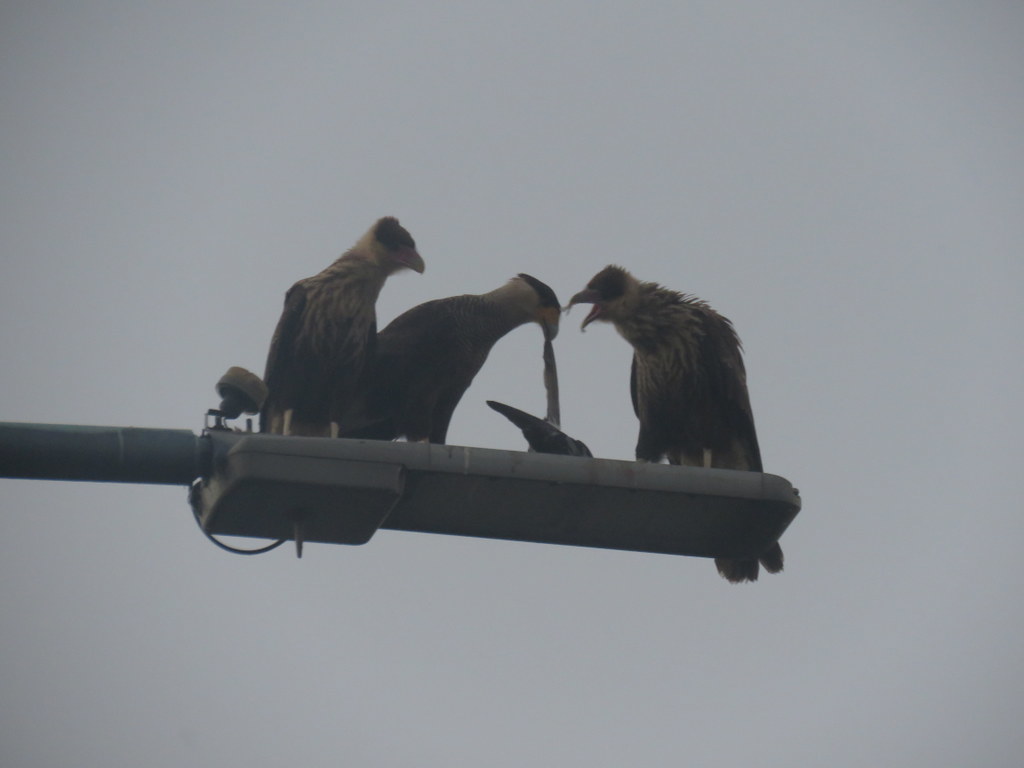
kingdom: Animalia
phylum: Chordata
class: Aves
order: Falconiformes
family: Falconidae
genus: Caracara
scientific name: Caracara plancus
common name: Southern caracara
